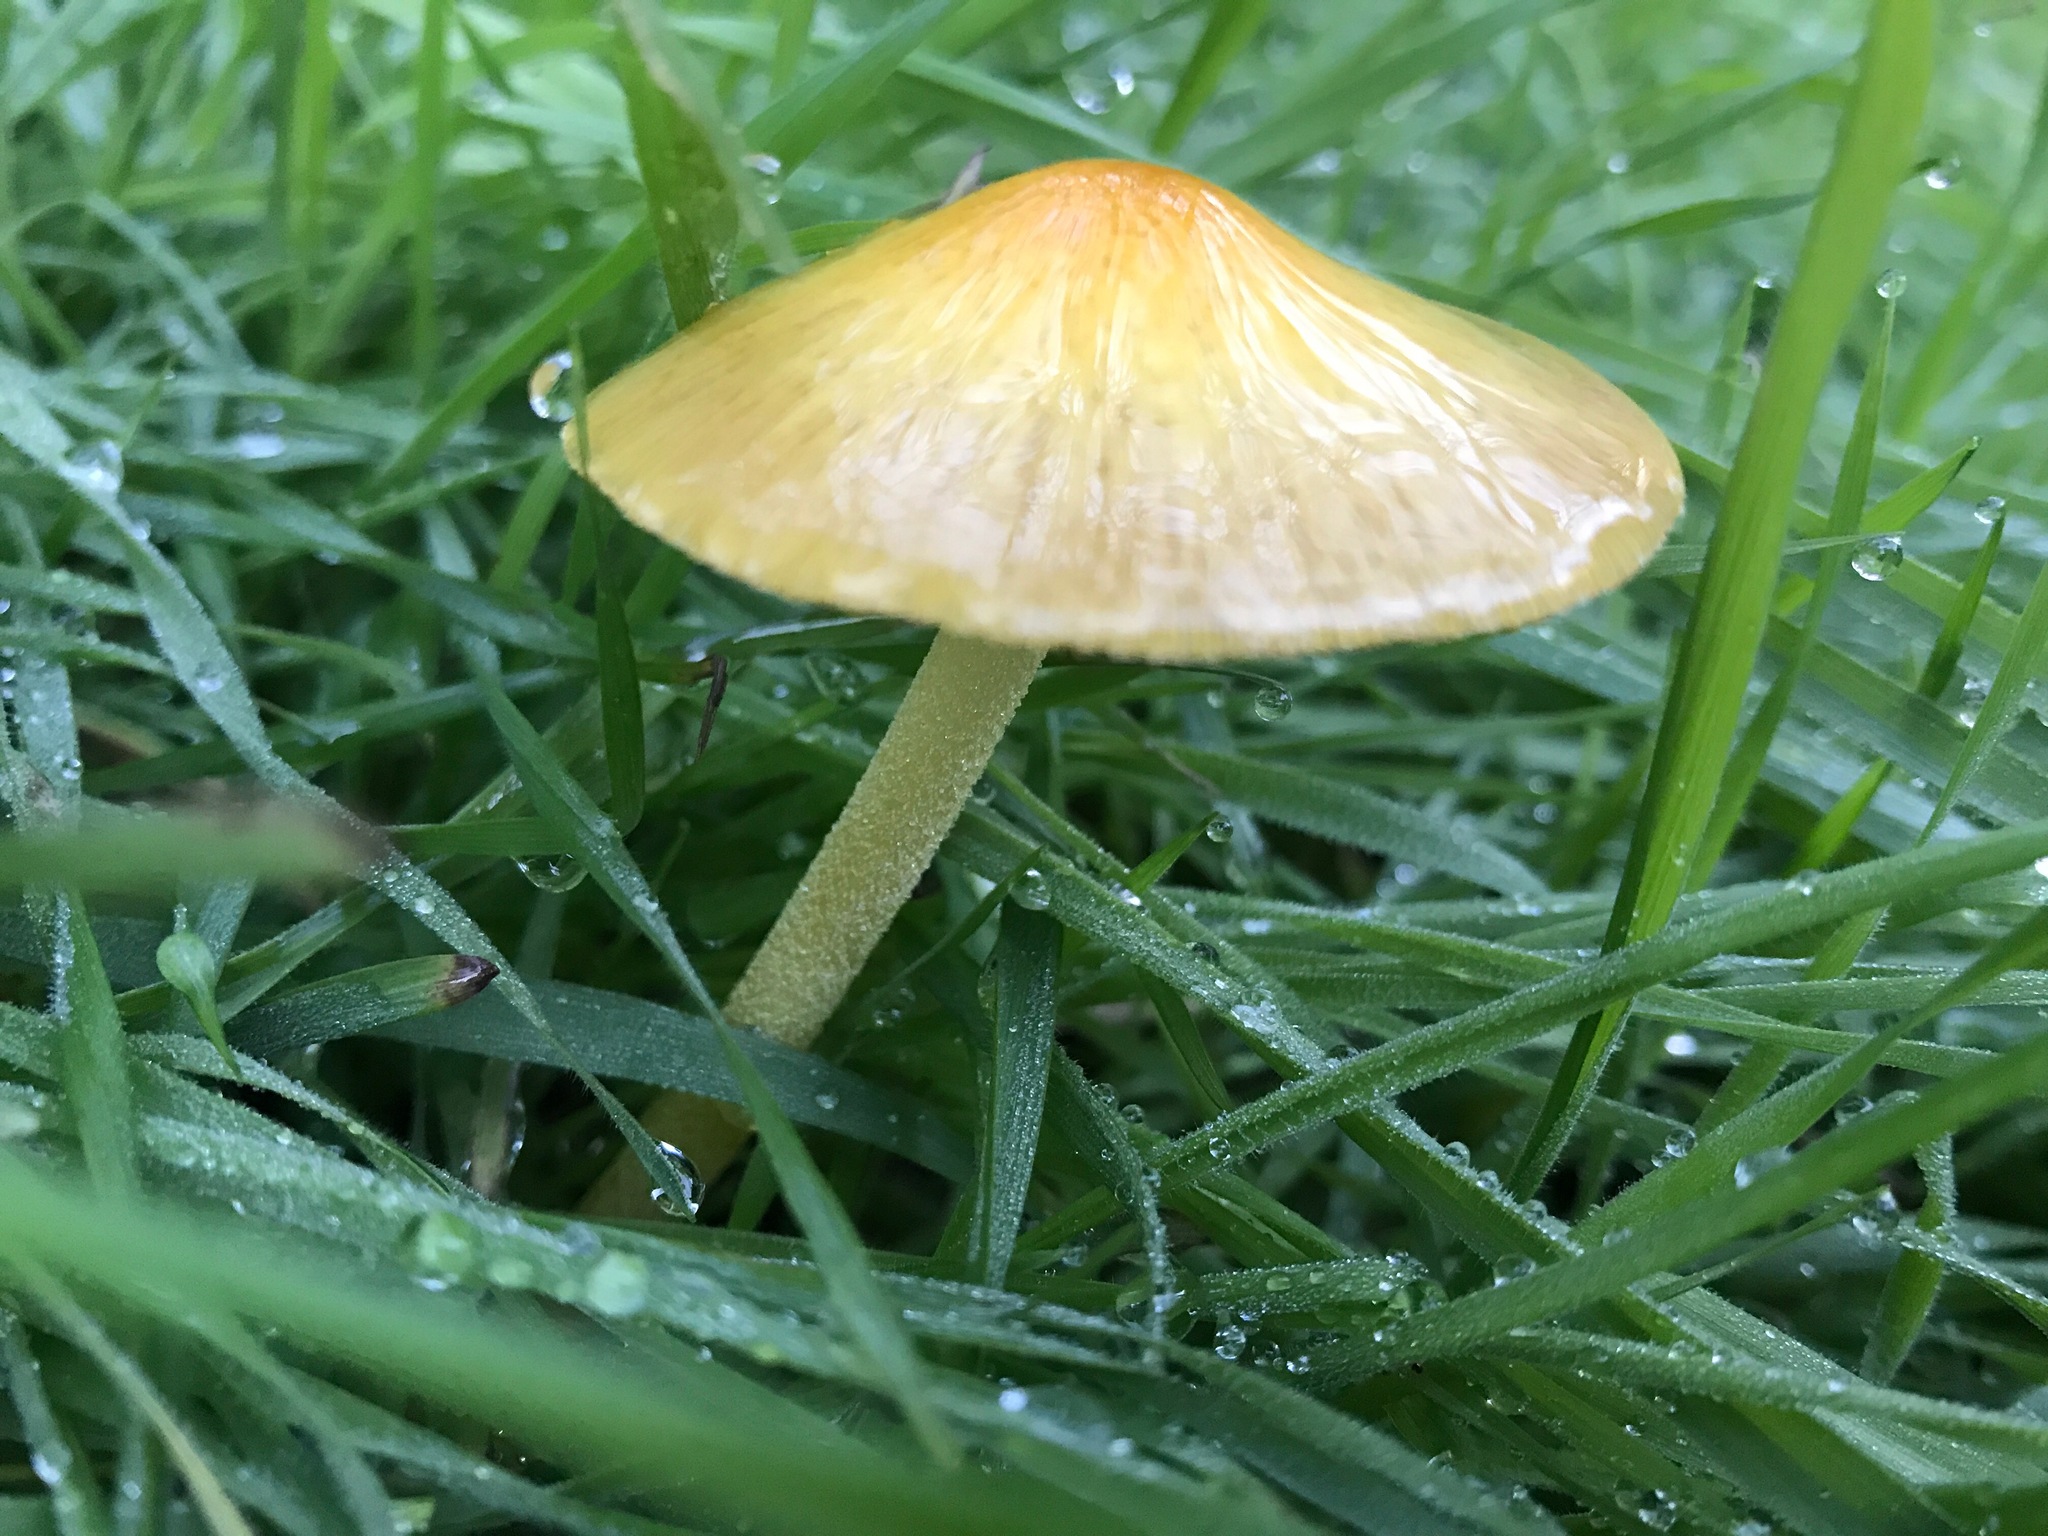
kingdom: Fungi
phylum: Basidiomycota
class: Agaricomycetes
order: Agaricales
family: Bolbitiaceae
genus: Bolbitius
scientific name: Bolbitius titubans
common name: Yellow fieldcap
